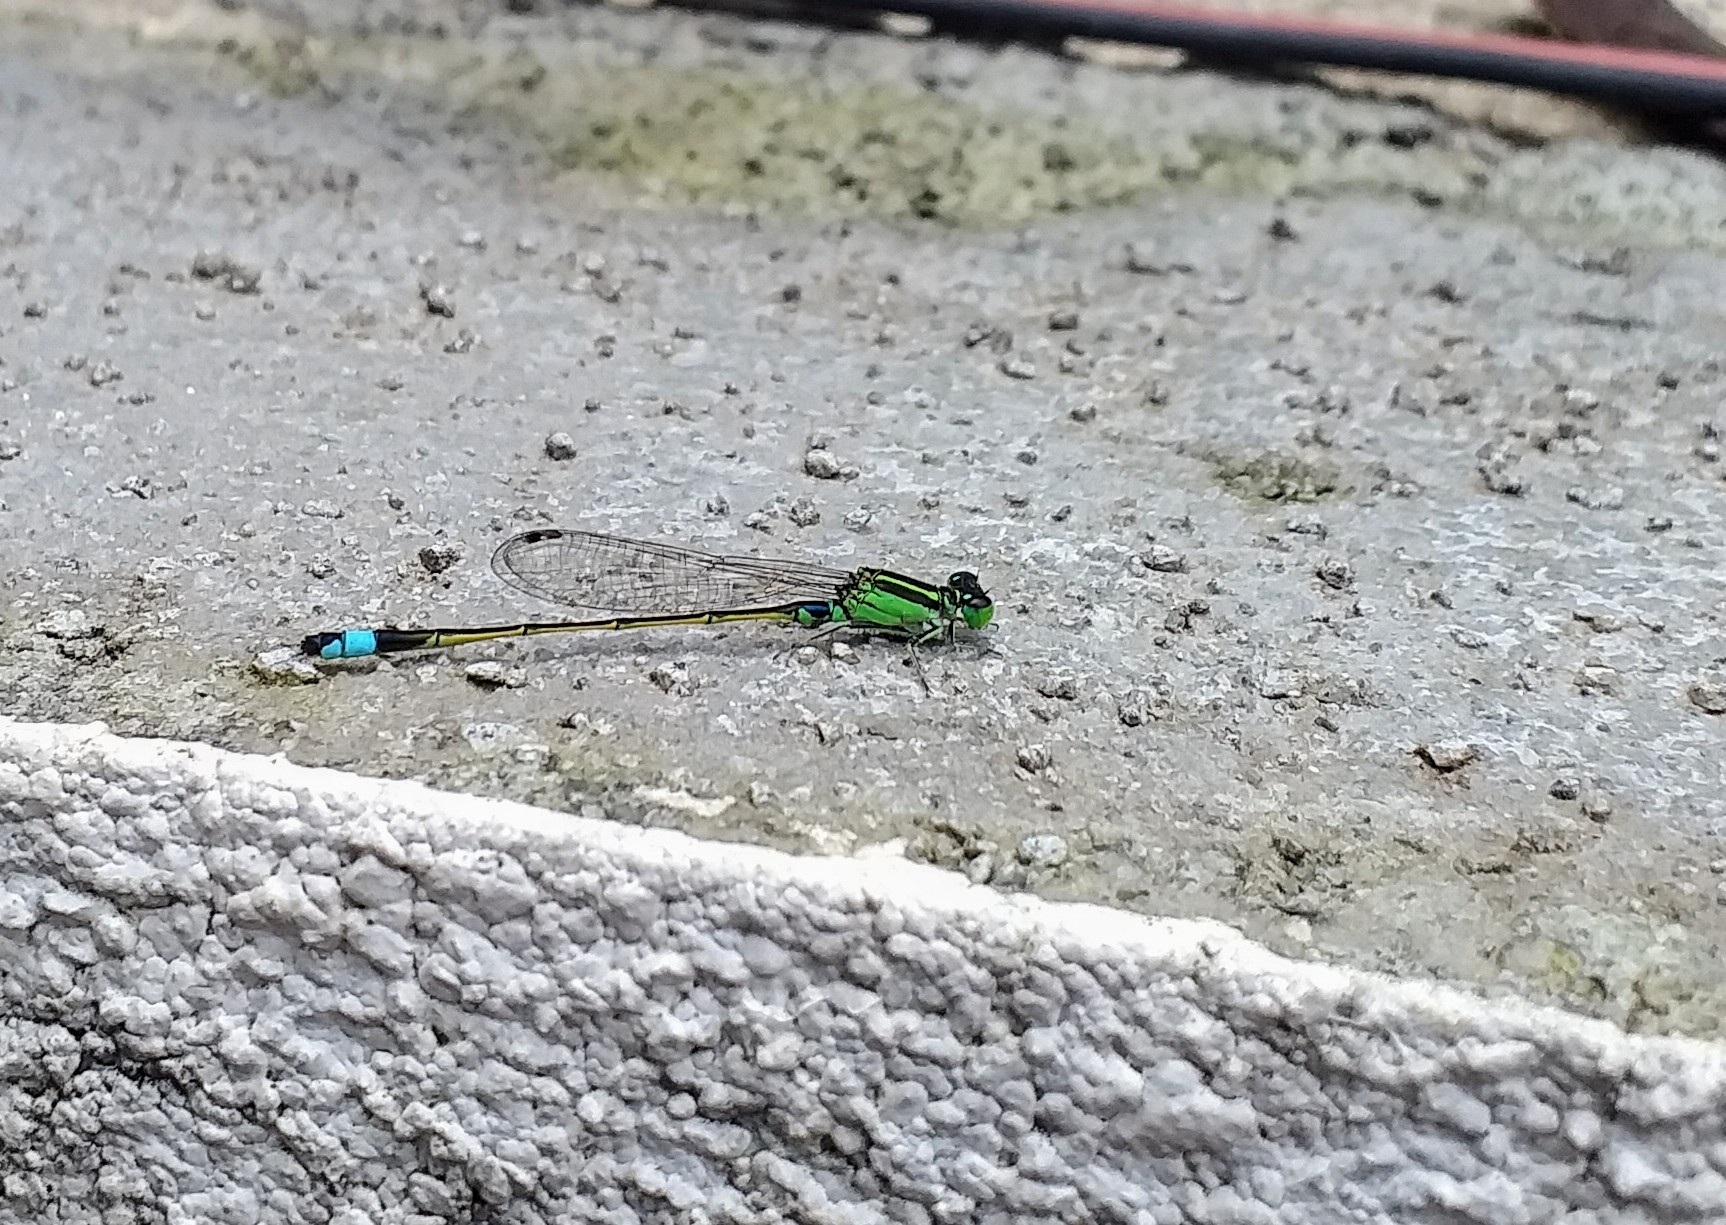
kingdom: Animalia
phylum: Arthropoda
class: Insecta
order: Odonata
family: Coenagrionidae
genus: Ischnura
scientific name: Ischnura senegalensis
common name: Tropical bluetail
